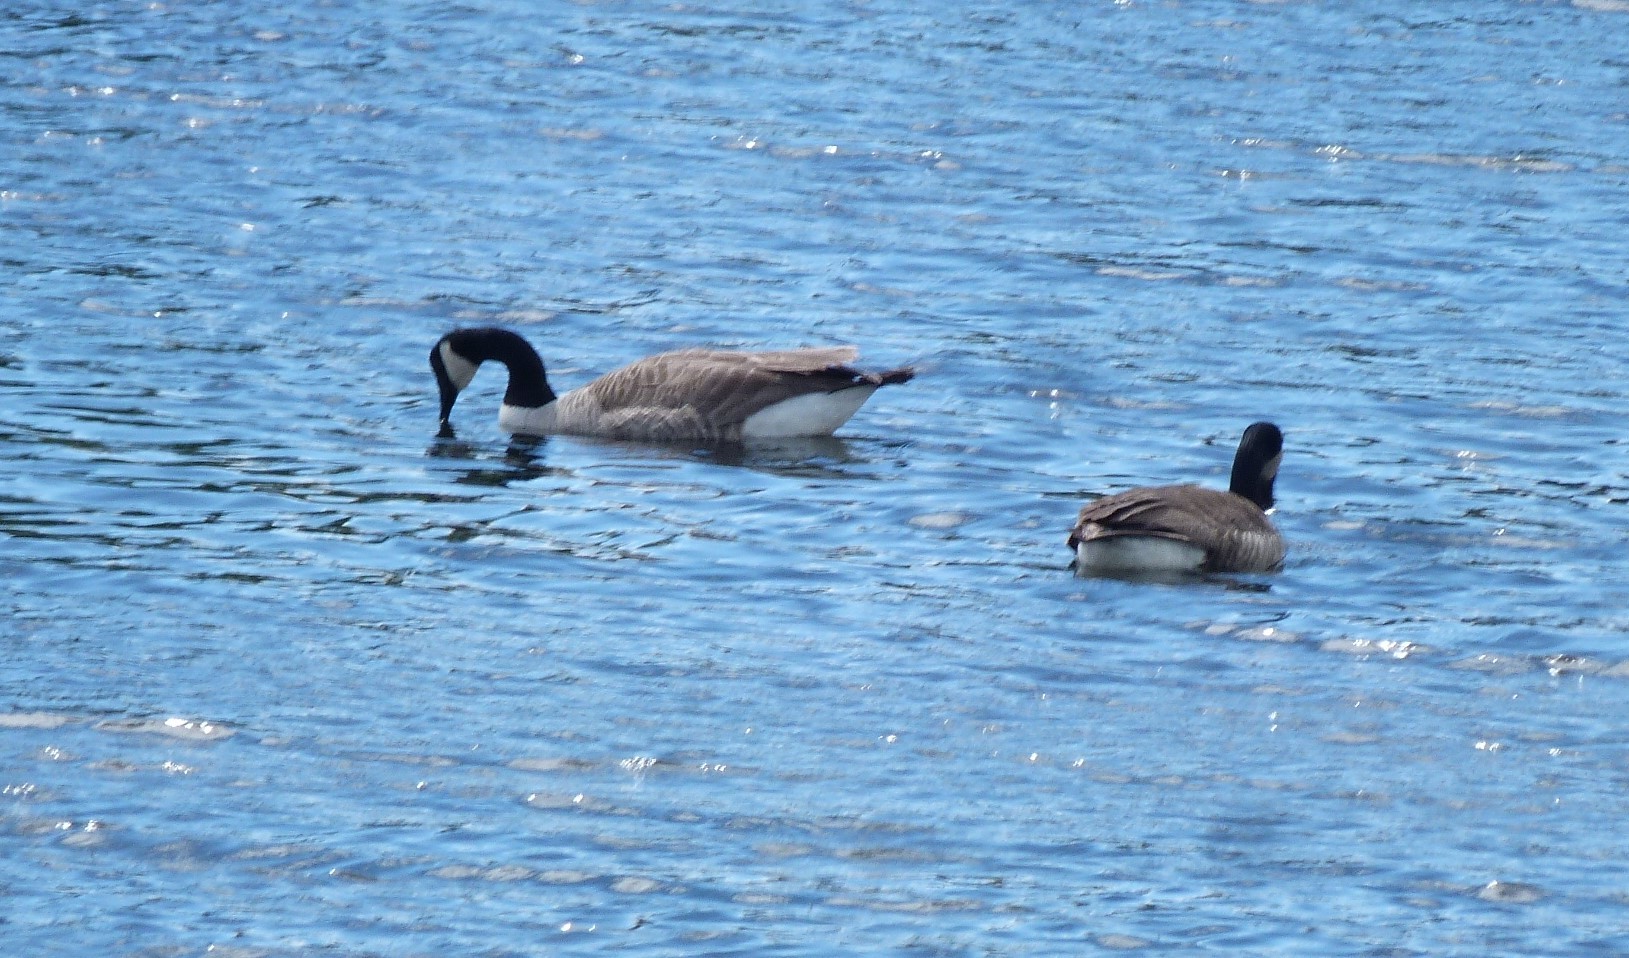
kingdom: Animalia
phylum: Chordata
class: Aves
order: Anseriformes
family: Anatidae
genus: Branta
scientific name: Branta canadensis
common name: Canada goose
